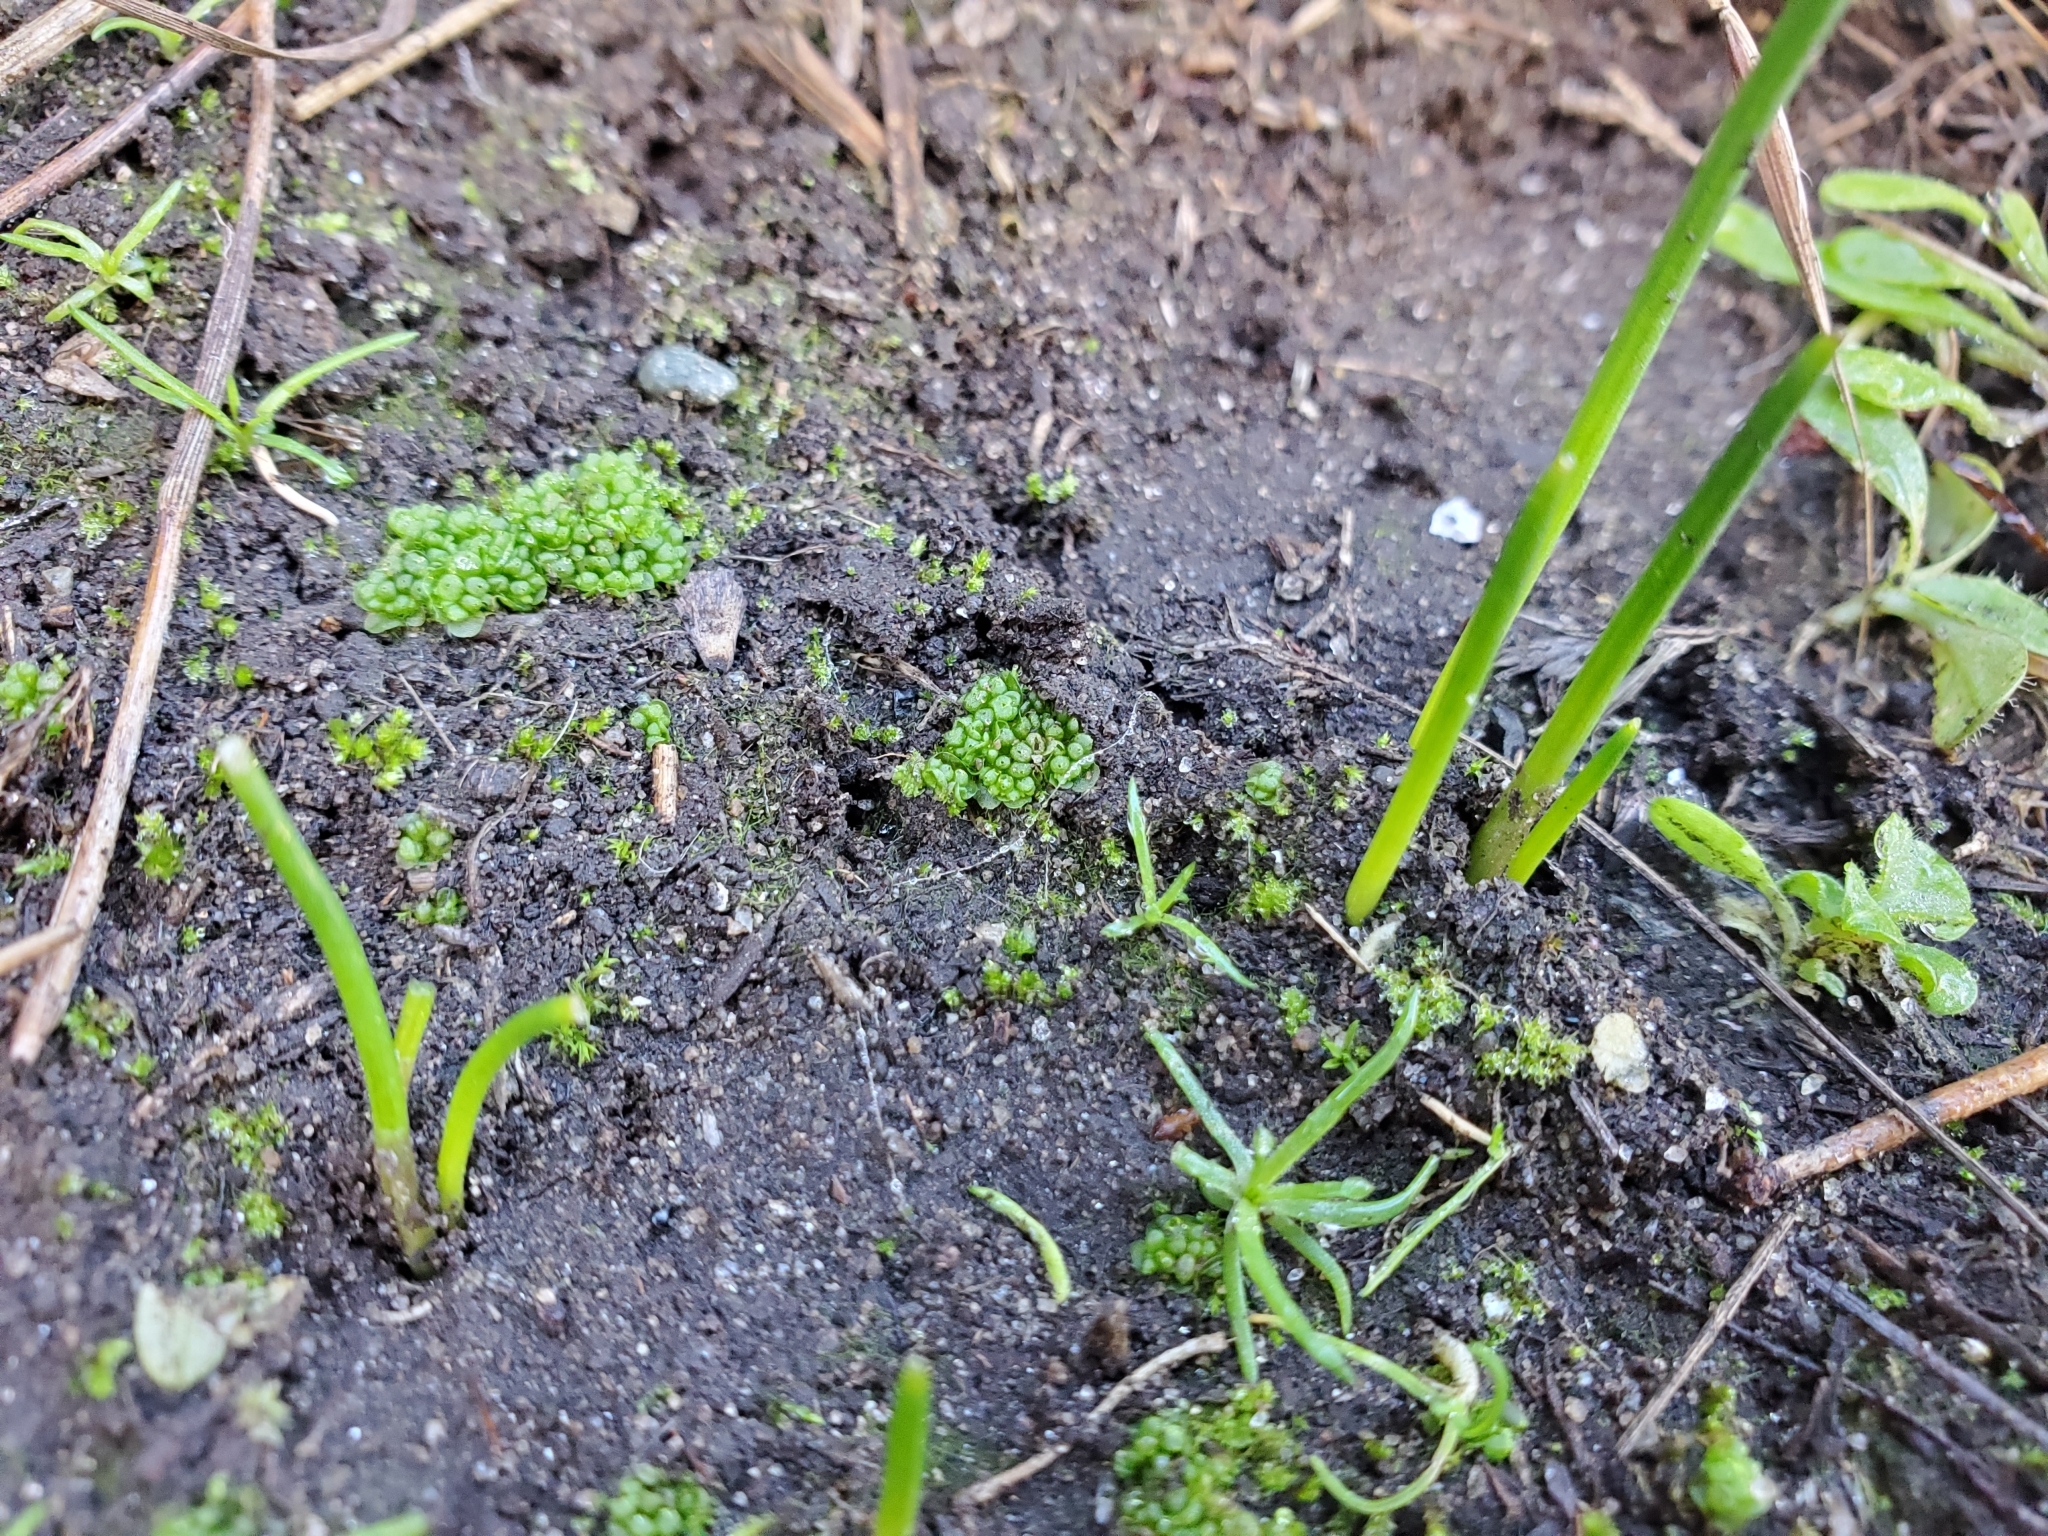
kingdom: Plantae
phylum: Marchantiophyta
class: Marchantiopsida
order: Sphaerocarpales
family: Sphaerocarpaceae
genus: Sphaerocarpos
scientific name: Sphaerocarpos texanus
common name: Texas balloonwort
